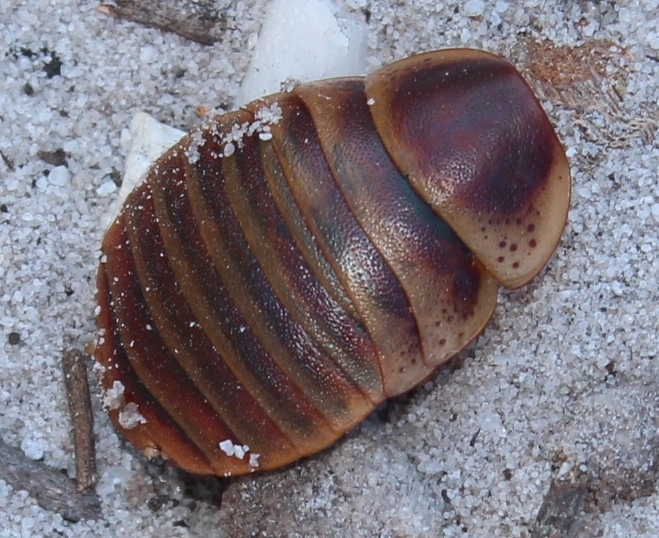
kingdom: Animalia
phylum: Arthropoda
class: Insecta
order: Blattodea
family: Blaberidae
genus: Aptera
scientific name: Aptera fusca
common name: Cape mountain cockroach
